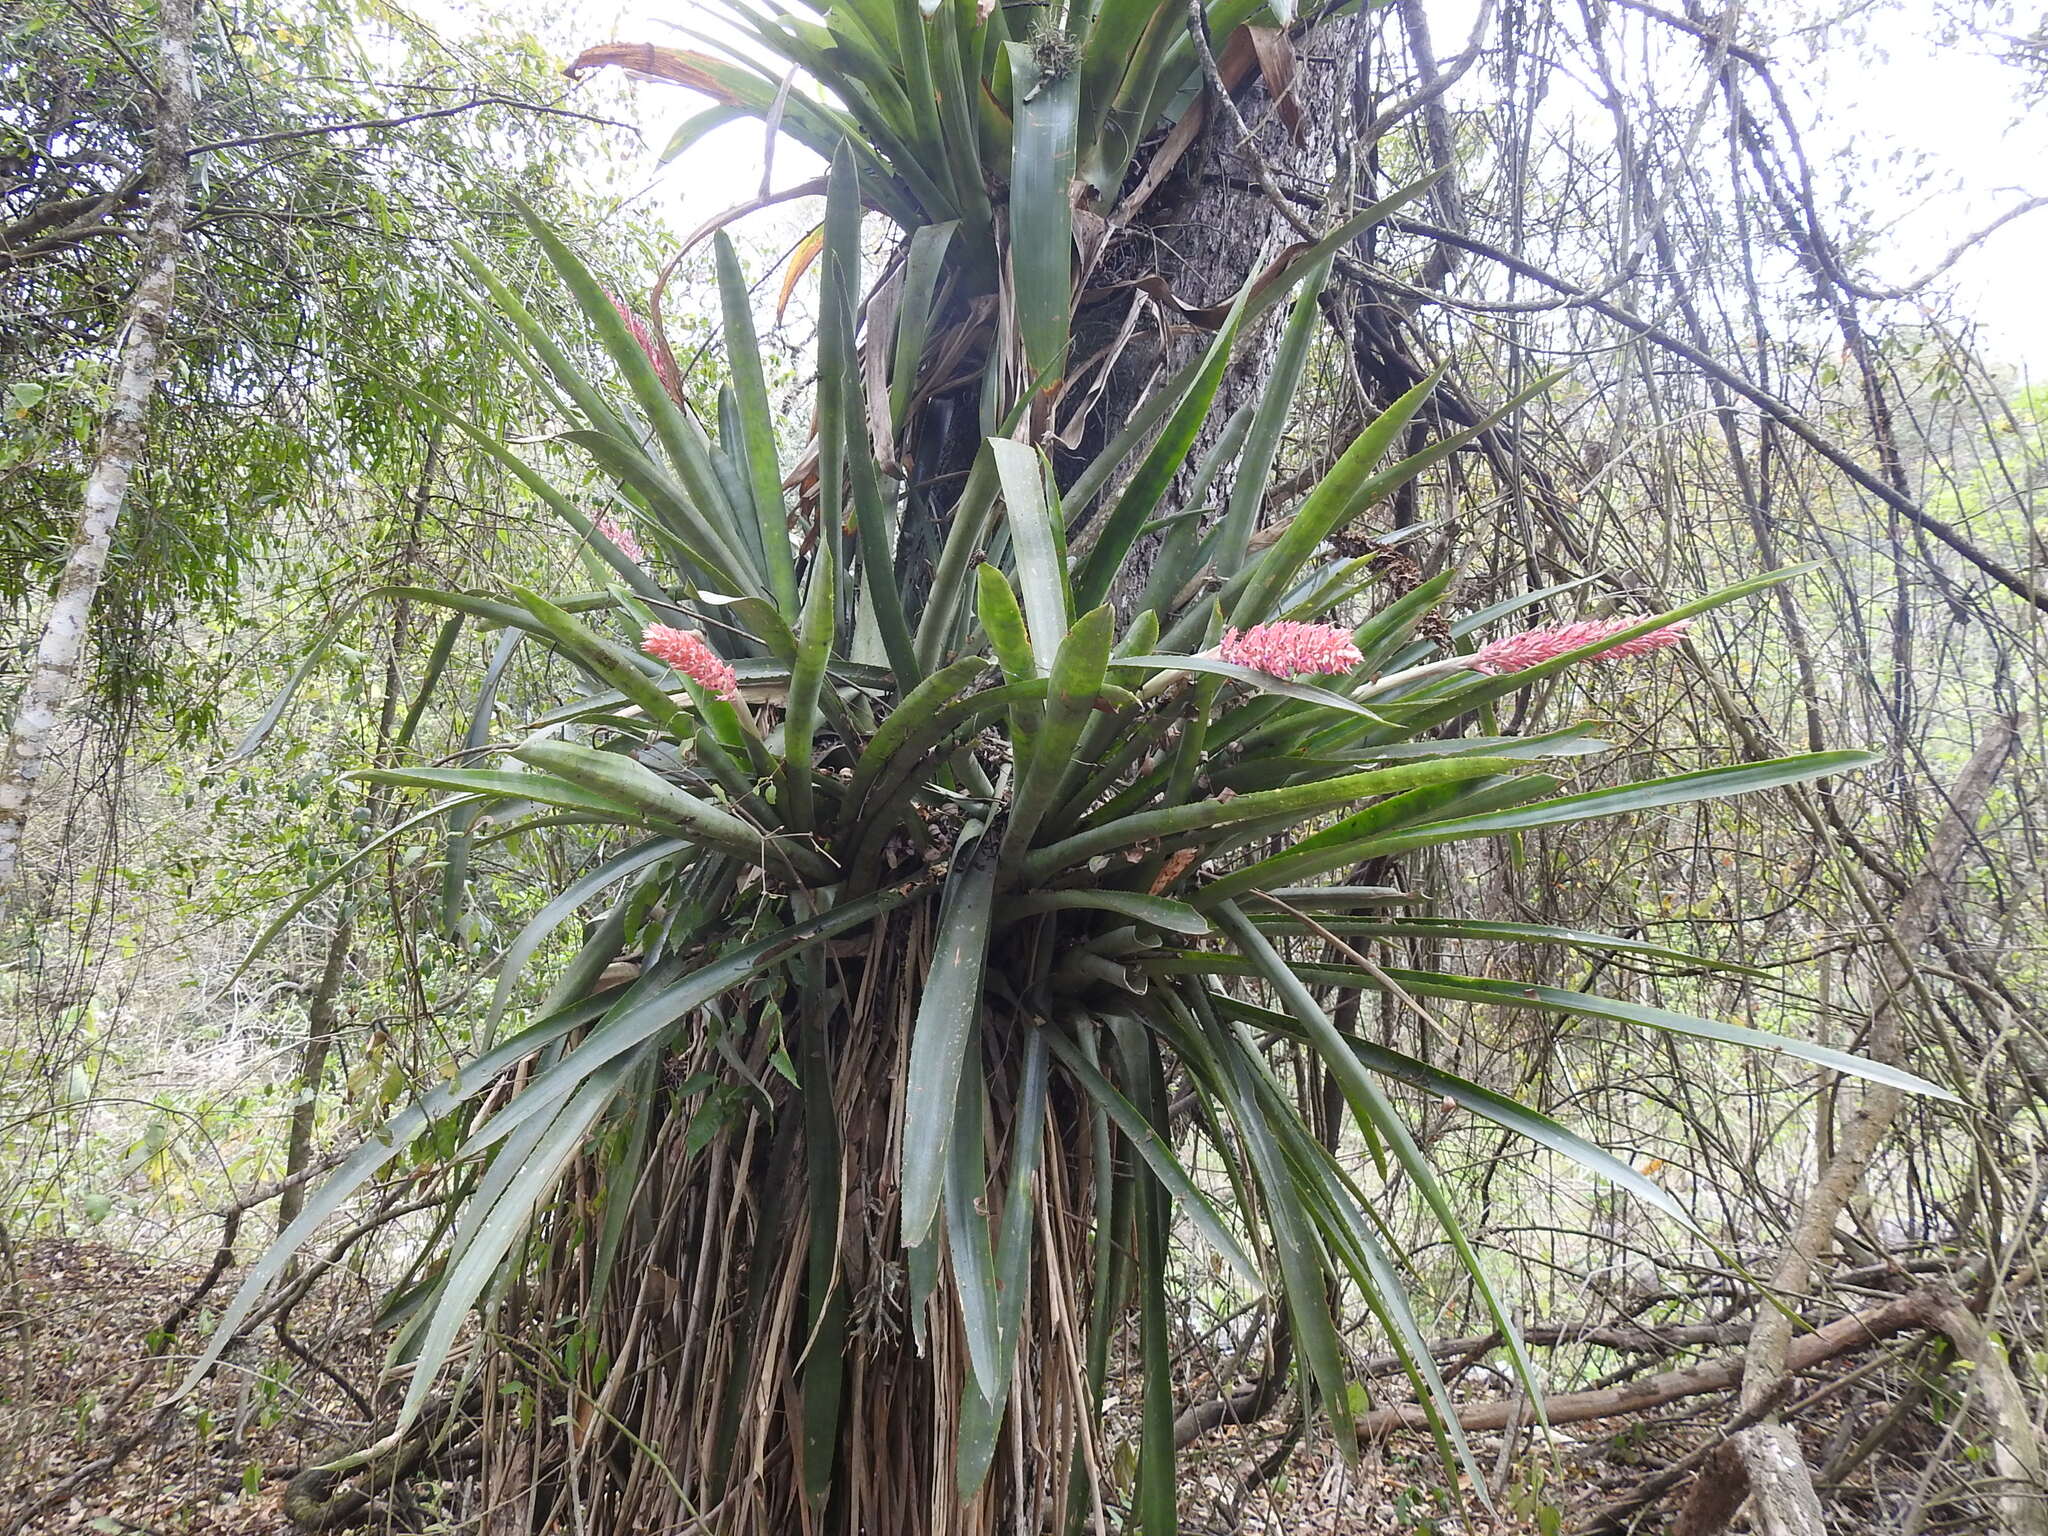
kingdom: Plantae
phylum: Tracheophyta
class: Liliopsida
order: Poales
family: Bromeliaceae
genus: Aechmea
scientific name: Aechmea distichantha
